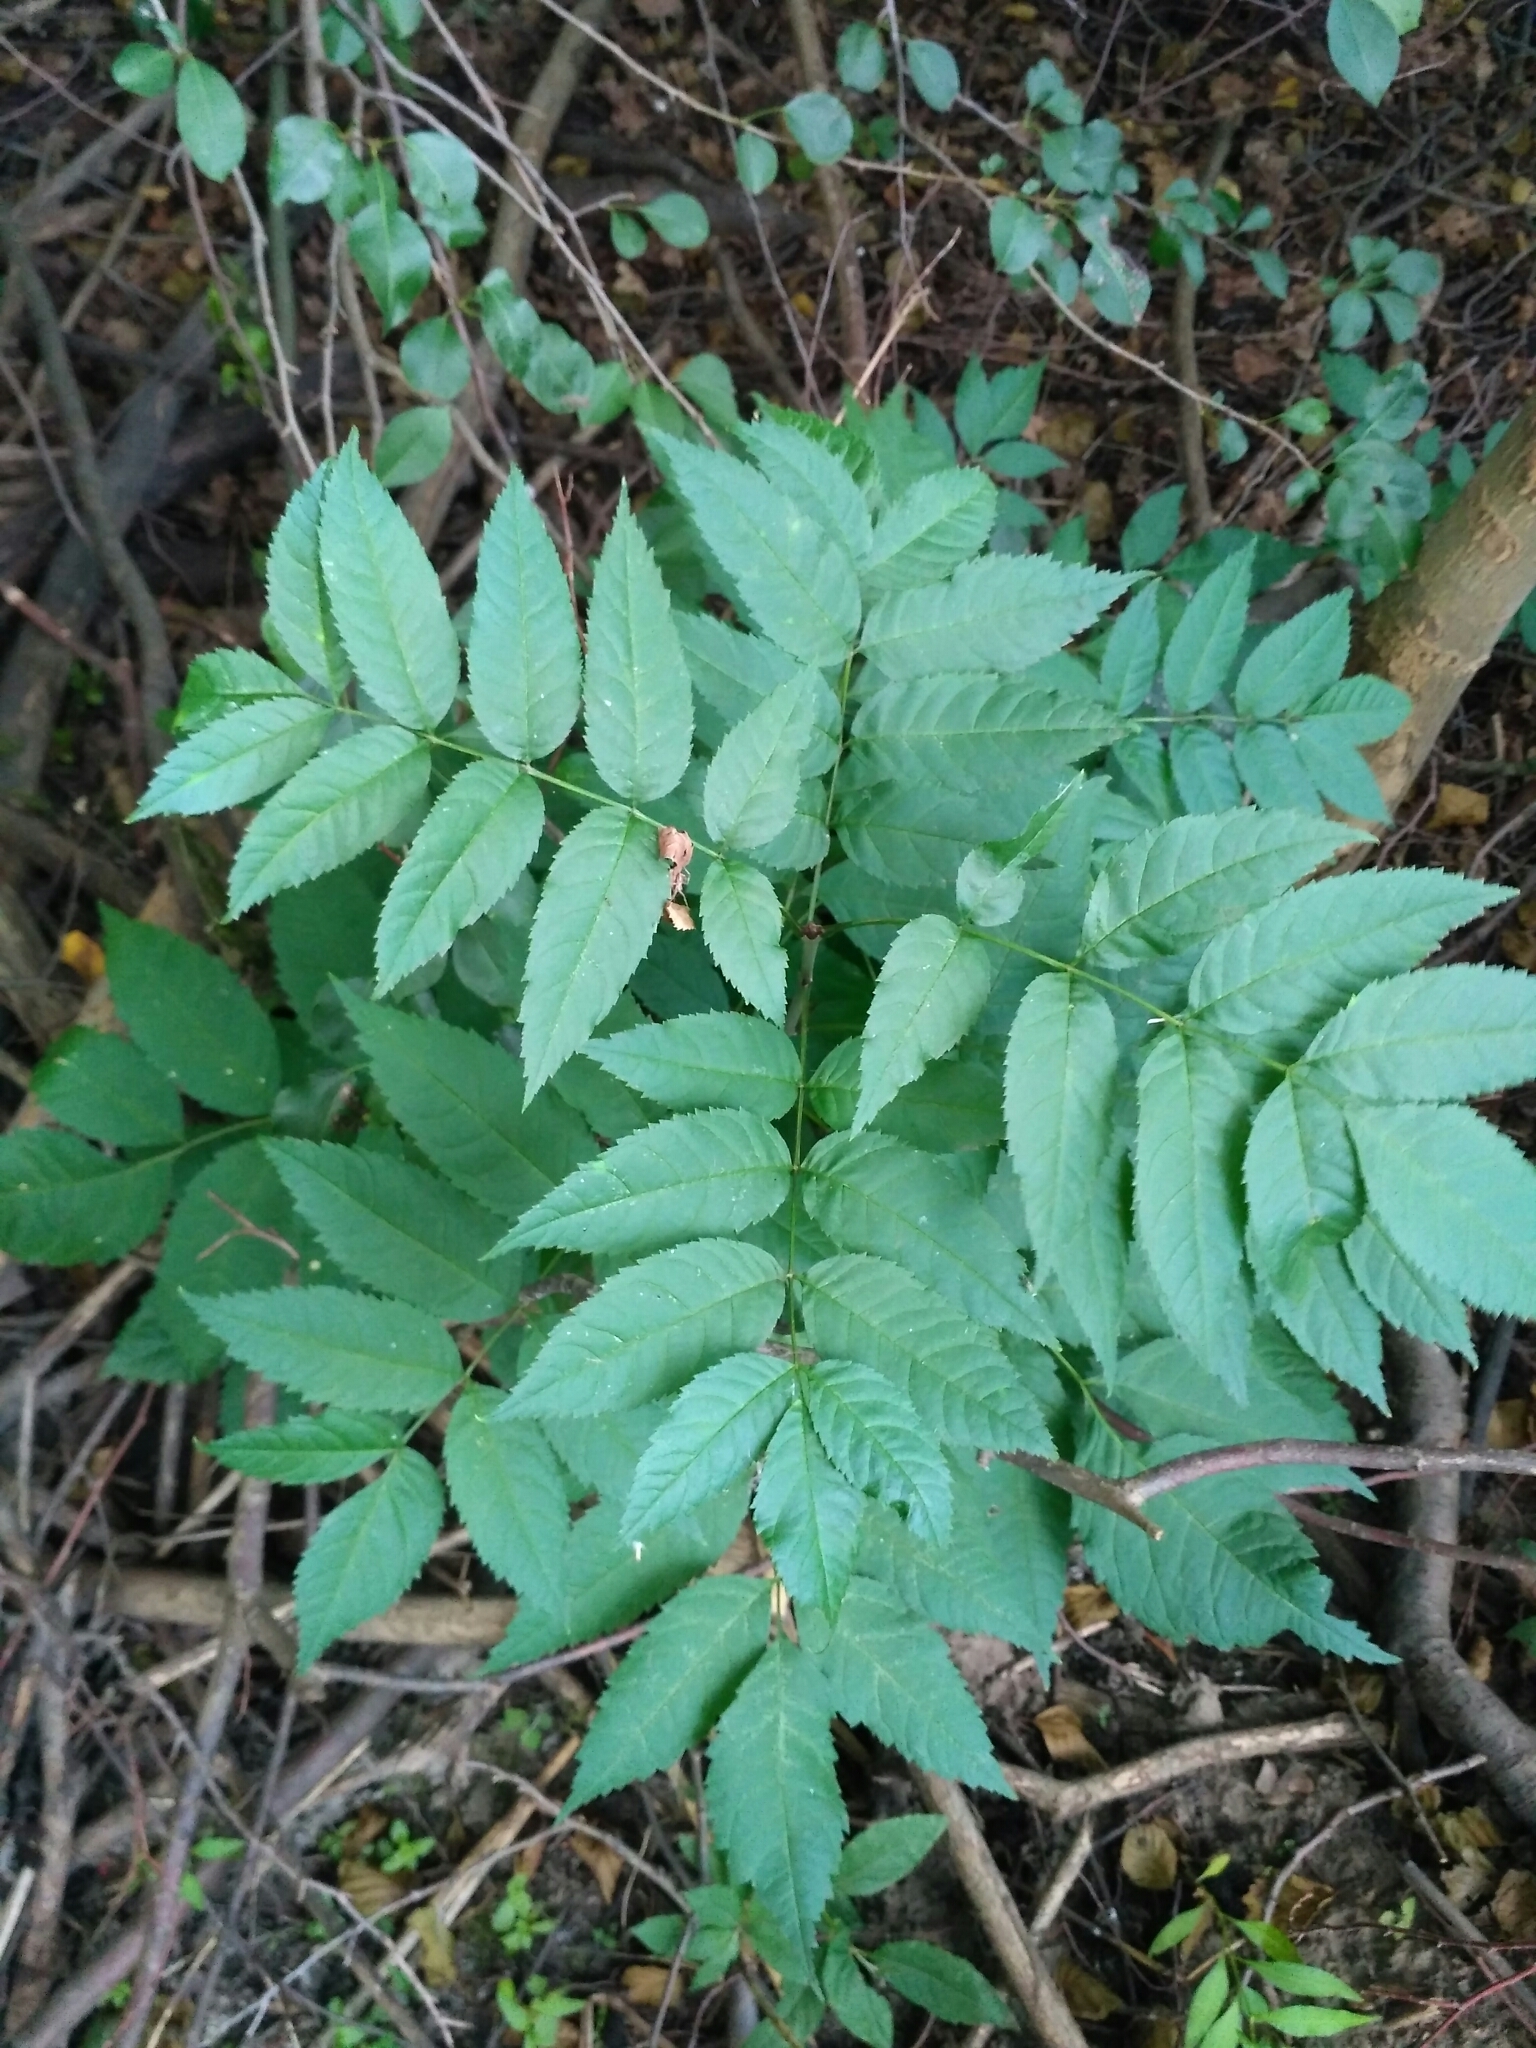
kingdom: Plantae
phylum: Tracheophyta
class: Magnoliopsida
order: Lamiales
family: Oleaceae
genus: Fraxinus
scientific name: Fraxinus excelsior
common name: European ash
